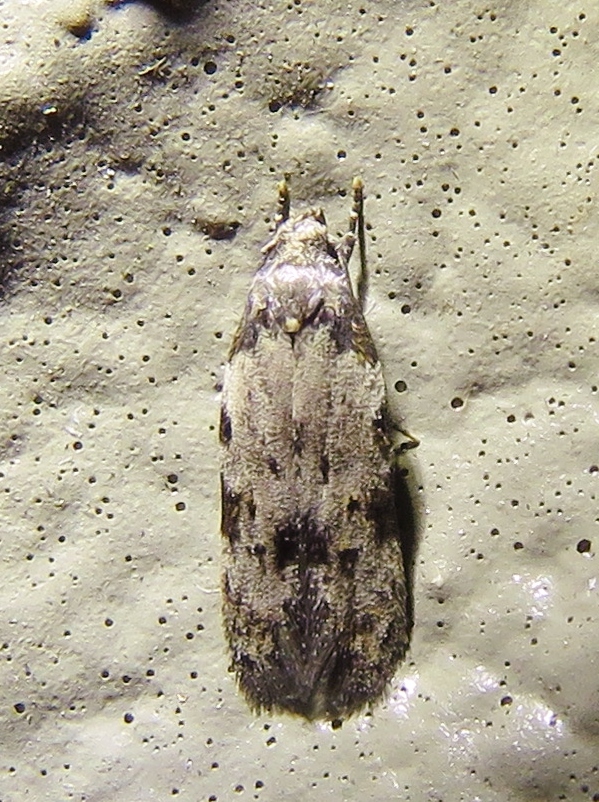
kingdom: Animalia
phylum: Arthropoda
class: Insecta
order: Lepidoptera
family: Autostichidae
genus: Taygete
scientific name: Taygete attributella
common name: Triangle-marked twirler moth
